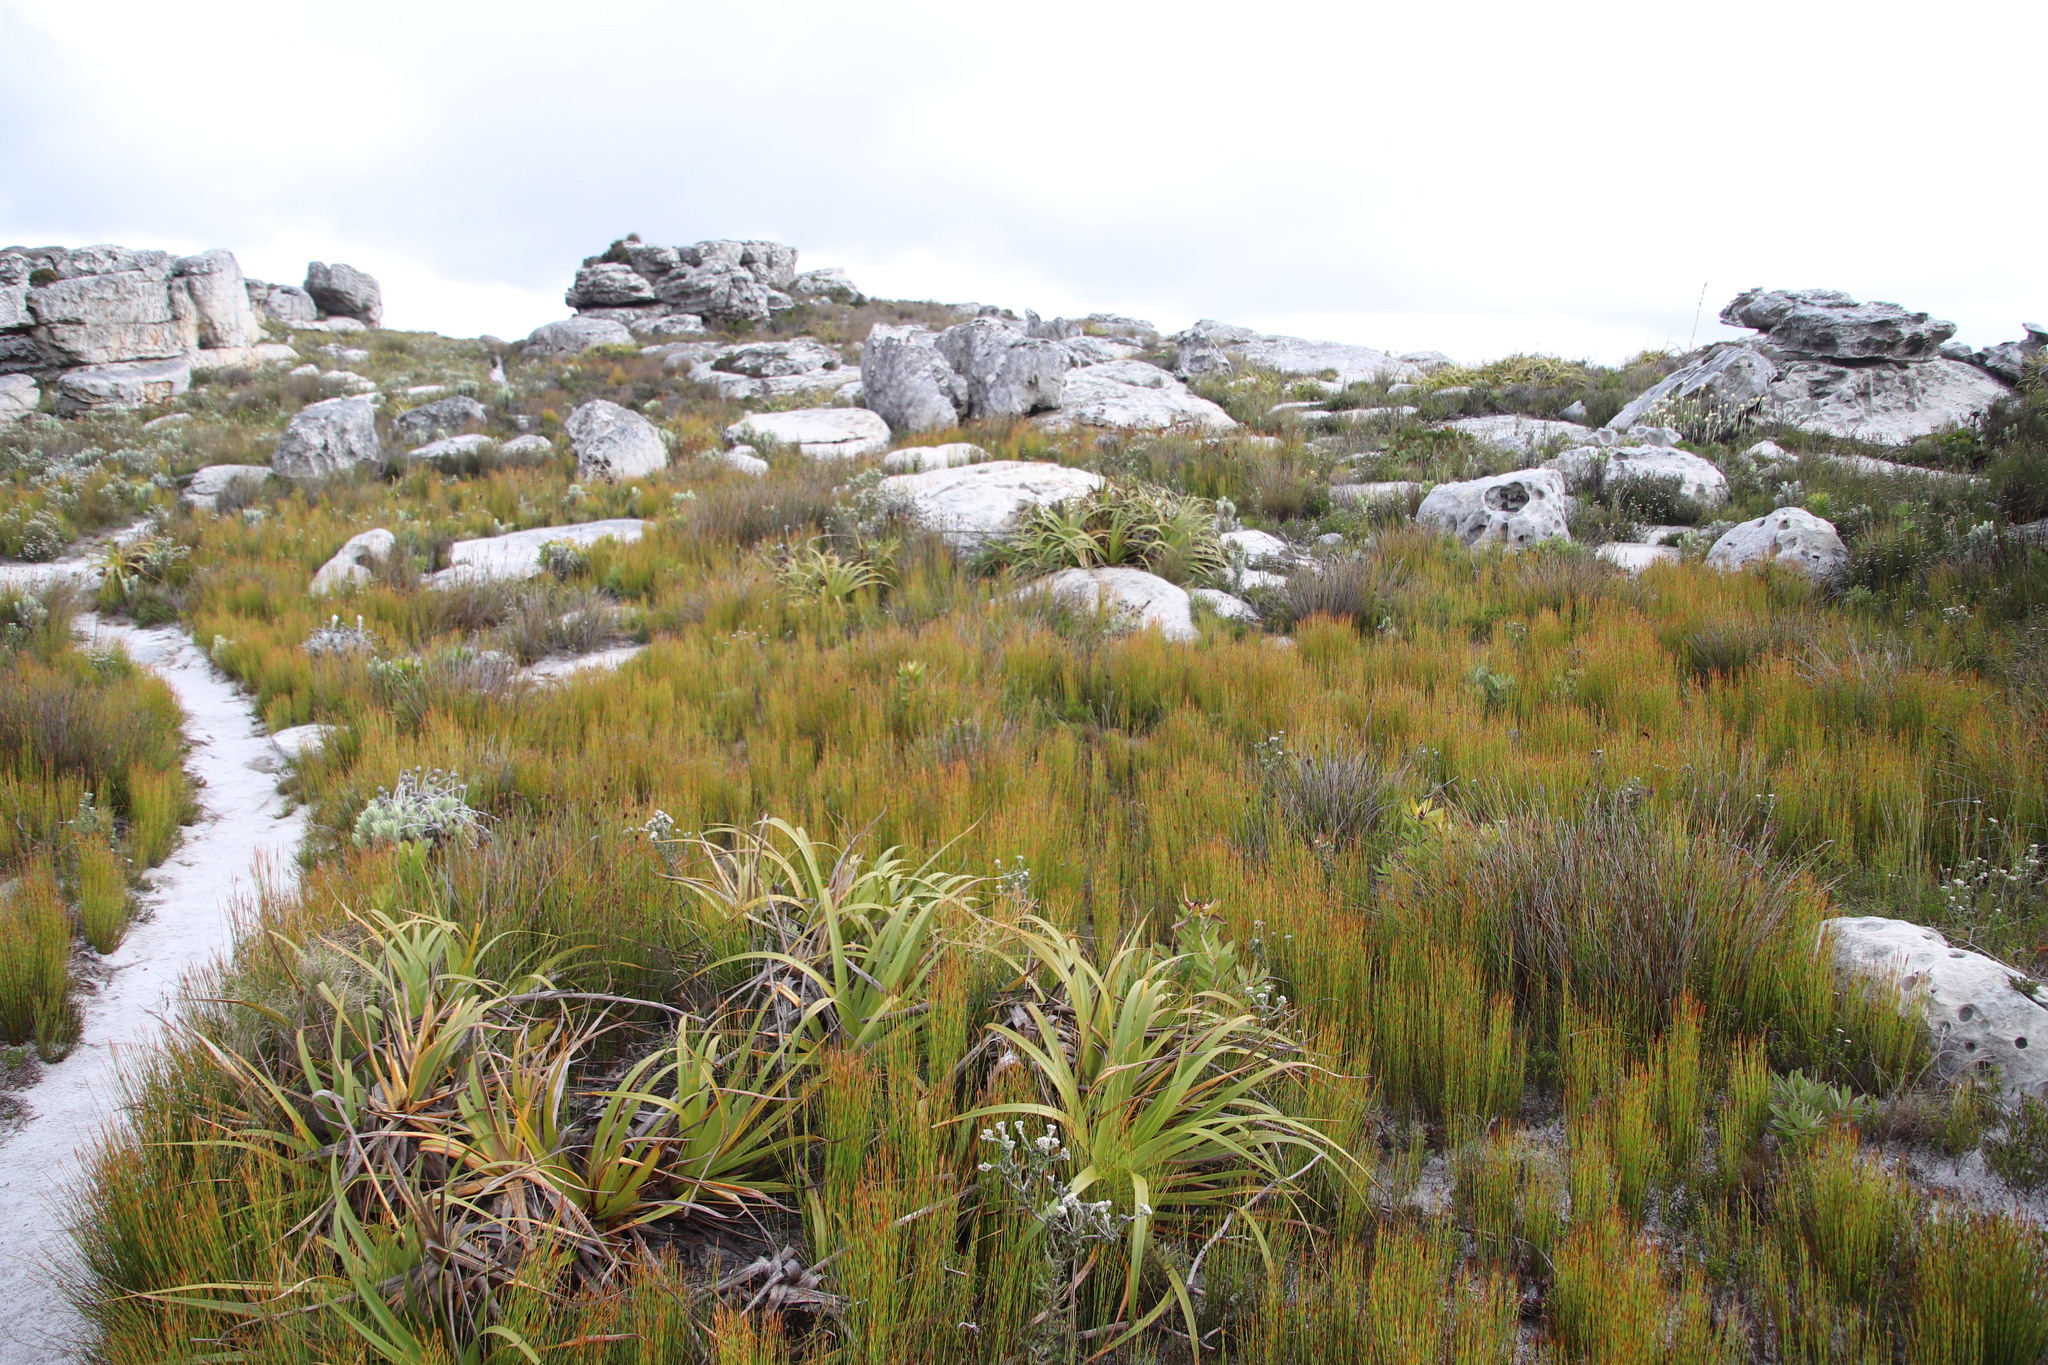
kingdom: Plantae
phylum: Tracheophyta
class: Liliopsida
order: Poales
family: Restionaceae
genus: Elegia
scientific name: Elegia filacea
